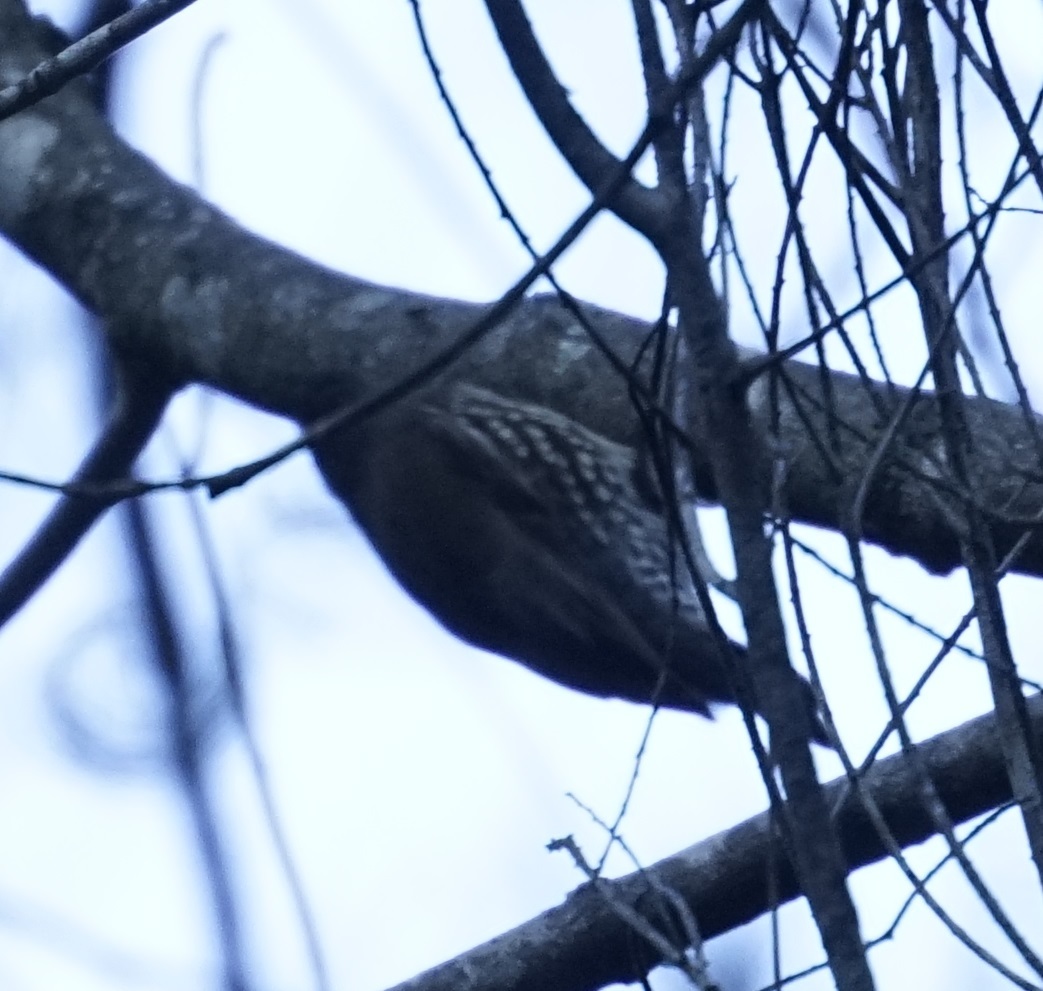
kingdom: Animalia
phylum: Chordata
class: Aves
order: Passeriformes
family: Climacteridae
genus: Cormobates
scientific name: Cormobates leucophaea
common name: White-throated treecreeper
